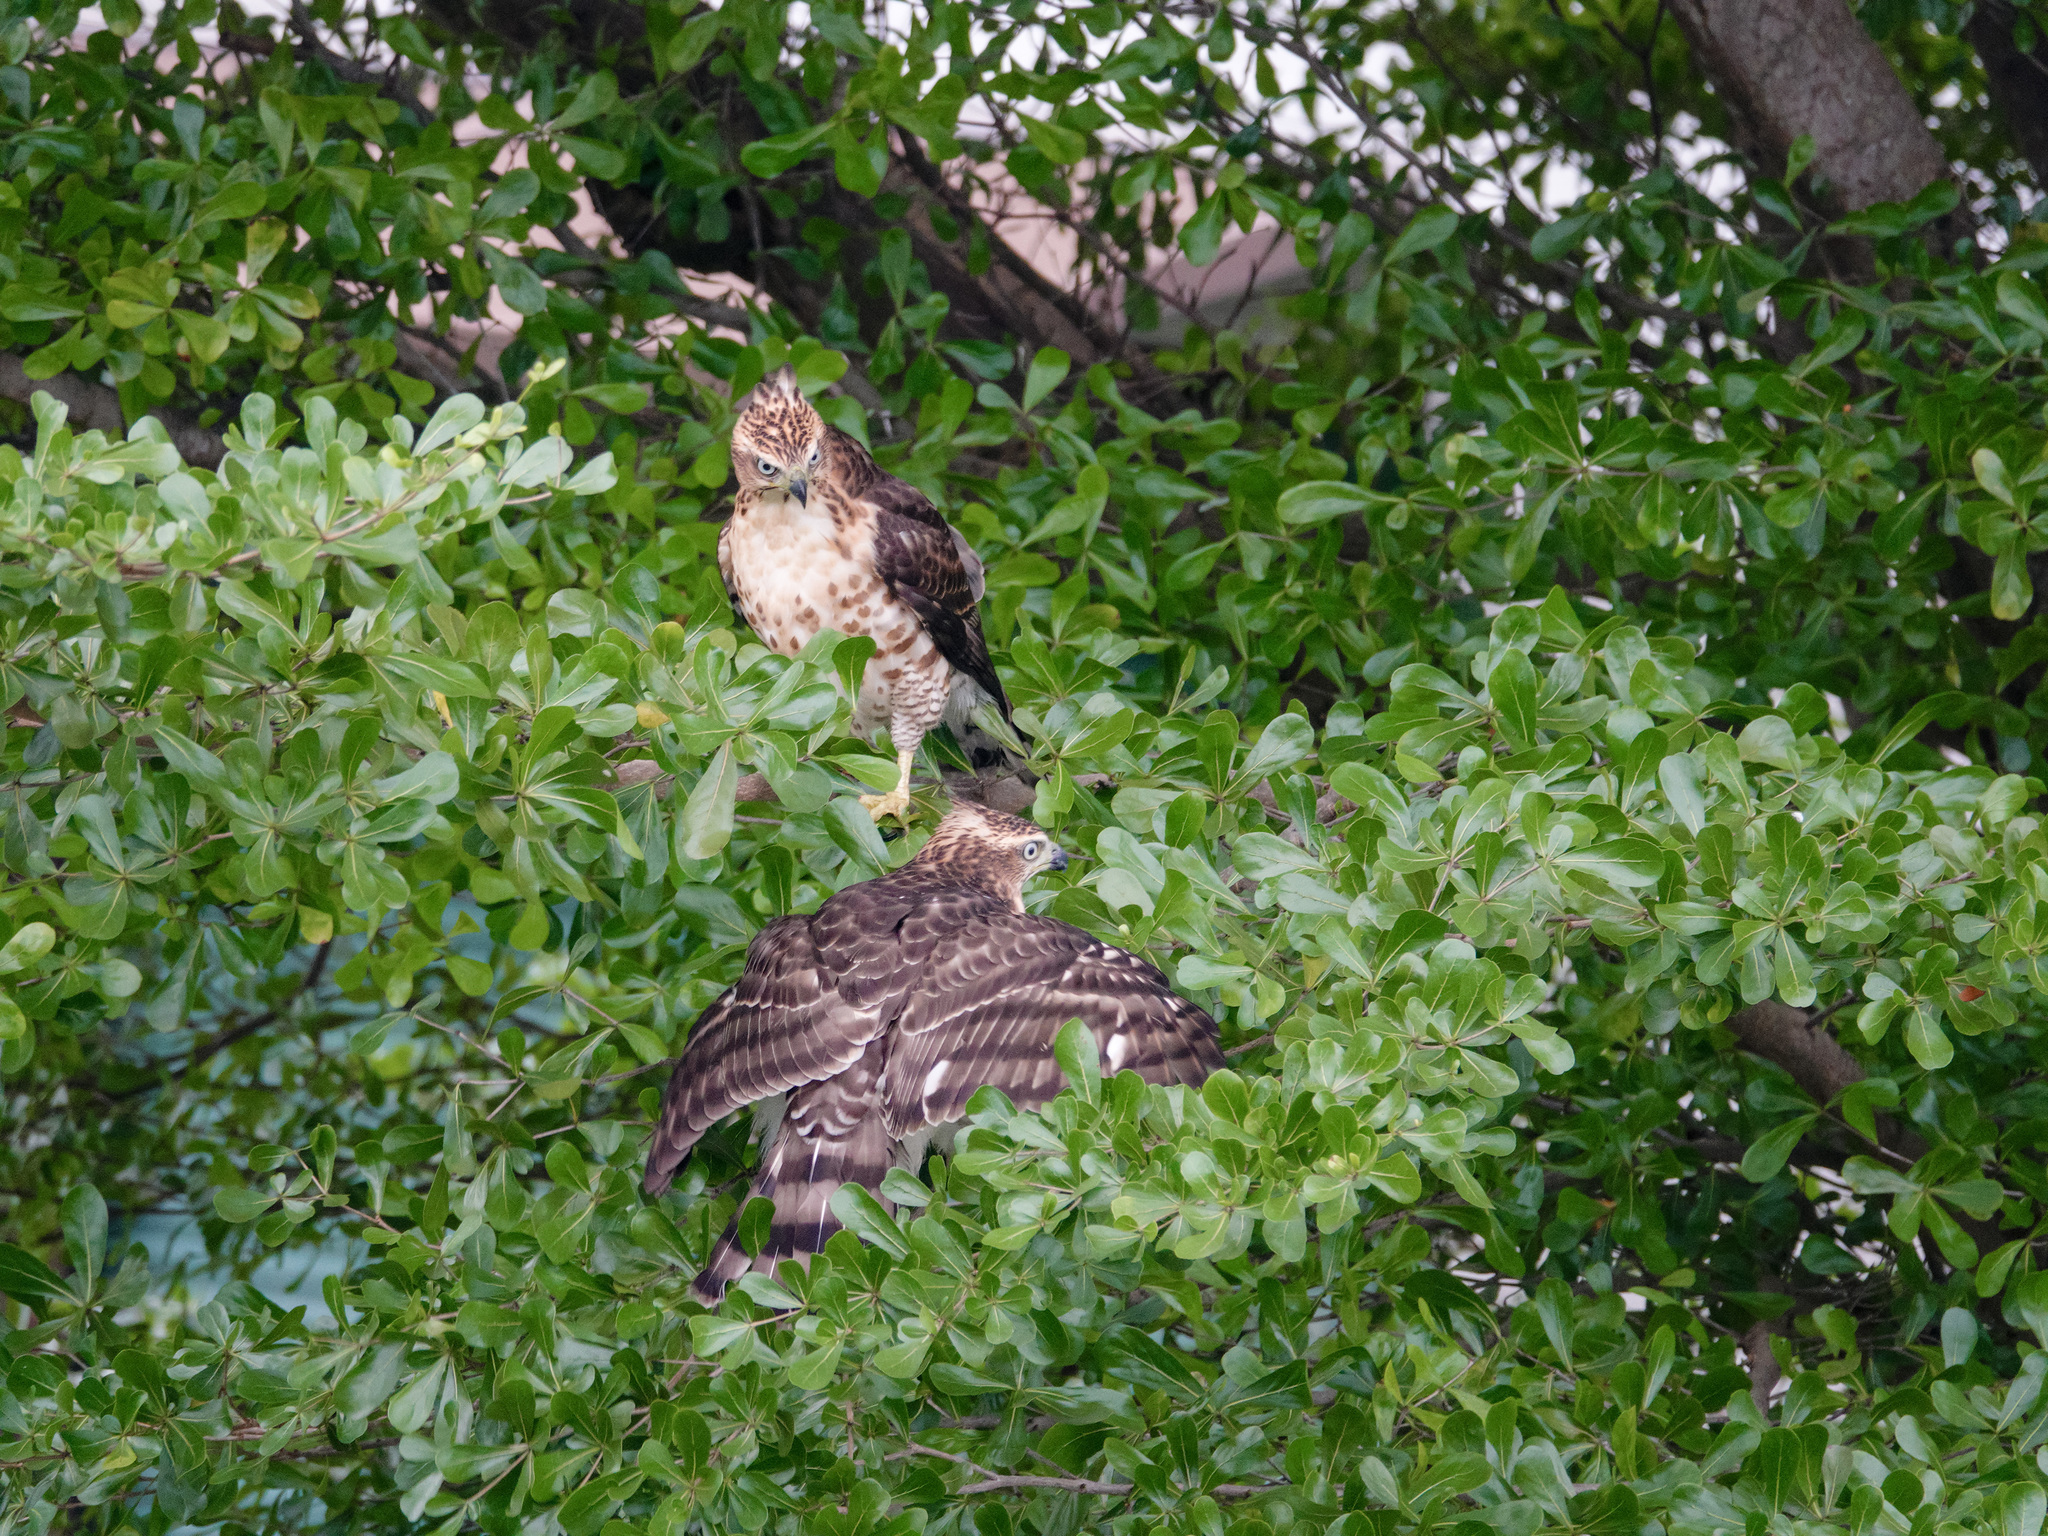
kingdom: Animalia
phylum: Chordata
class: Aves
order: Accipitriformes
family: Accipitridae
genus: Accipiter
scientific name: Accipiter trivirgatus
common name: Crested goshawk
